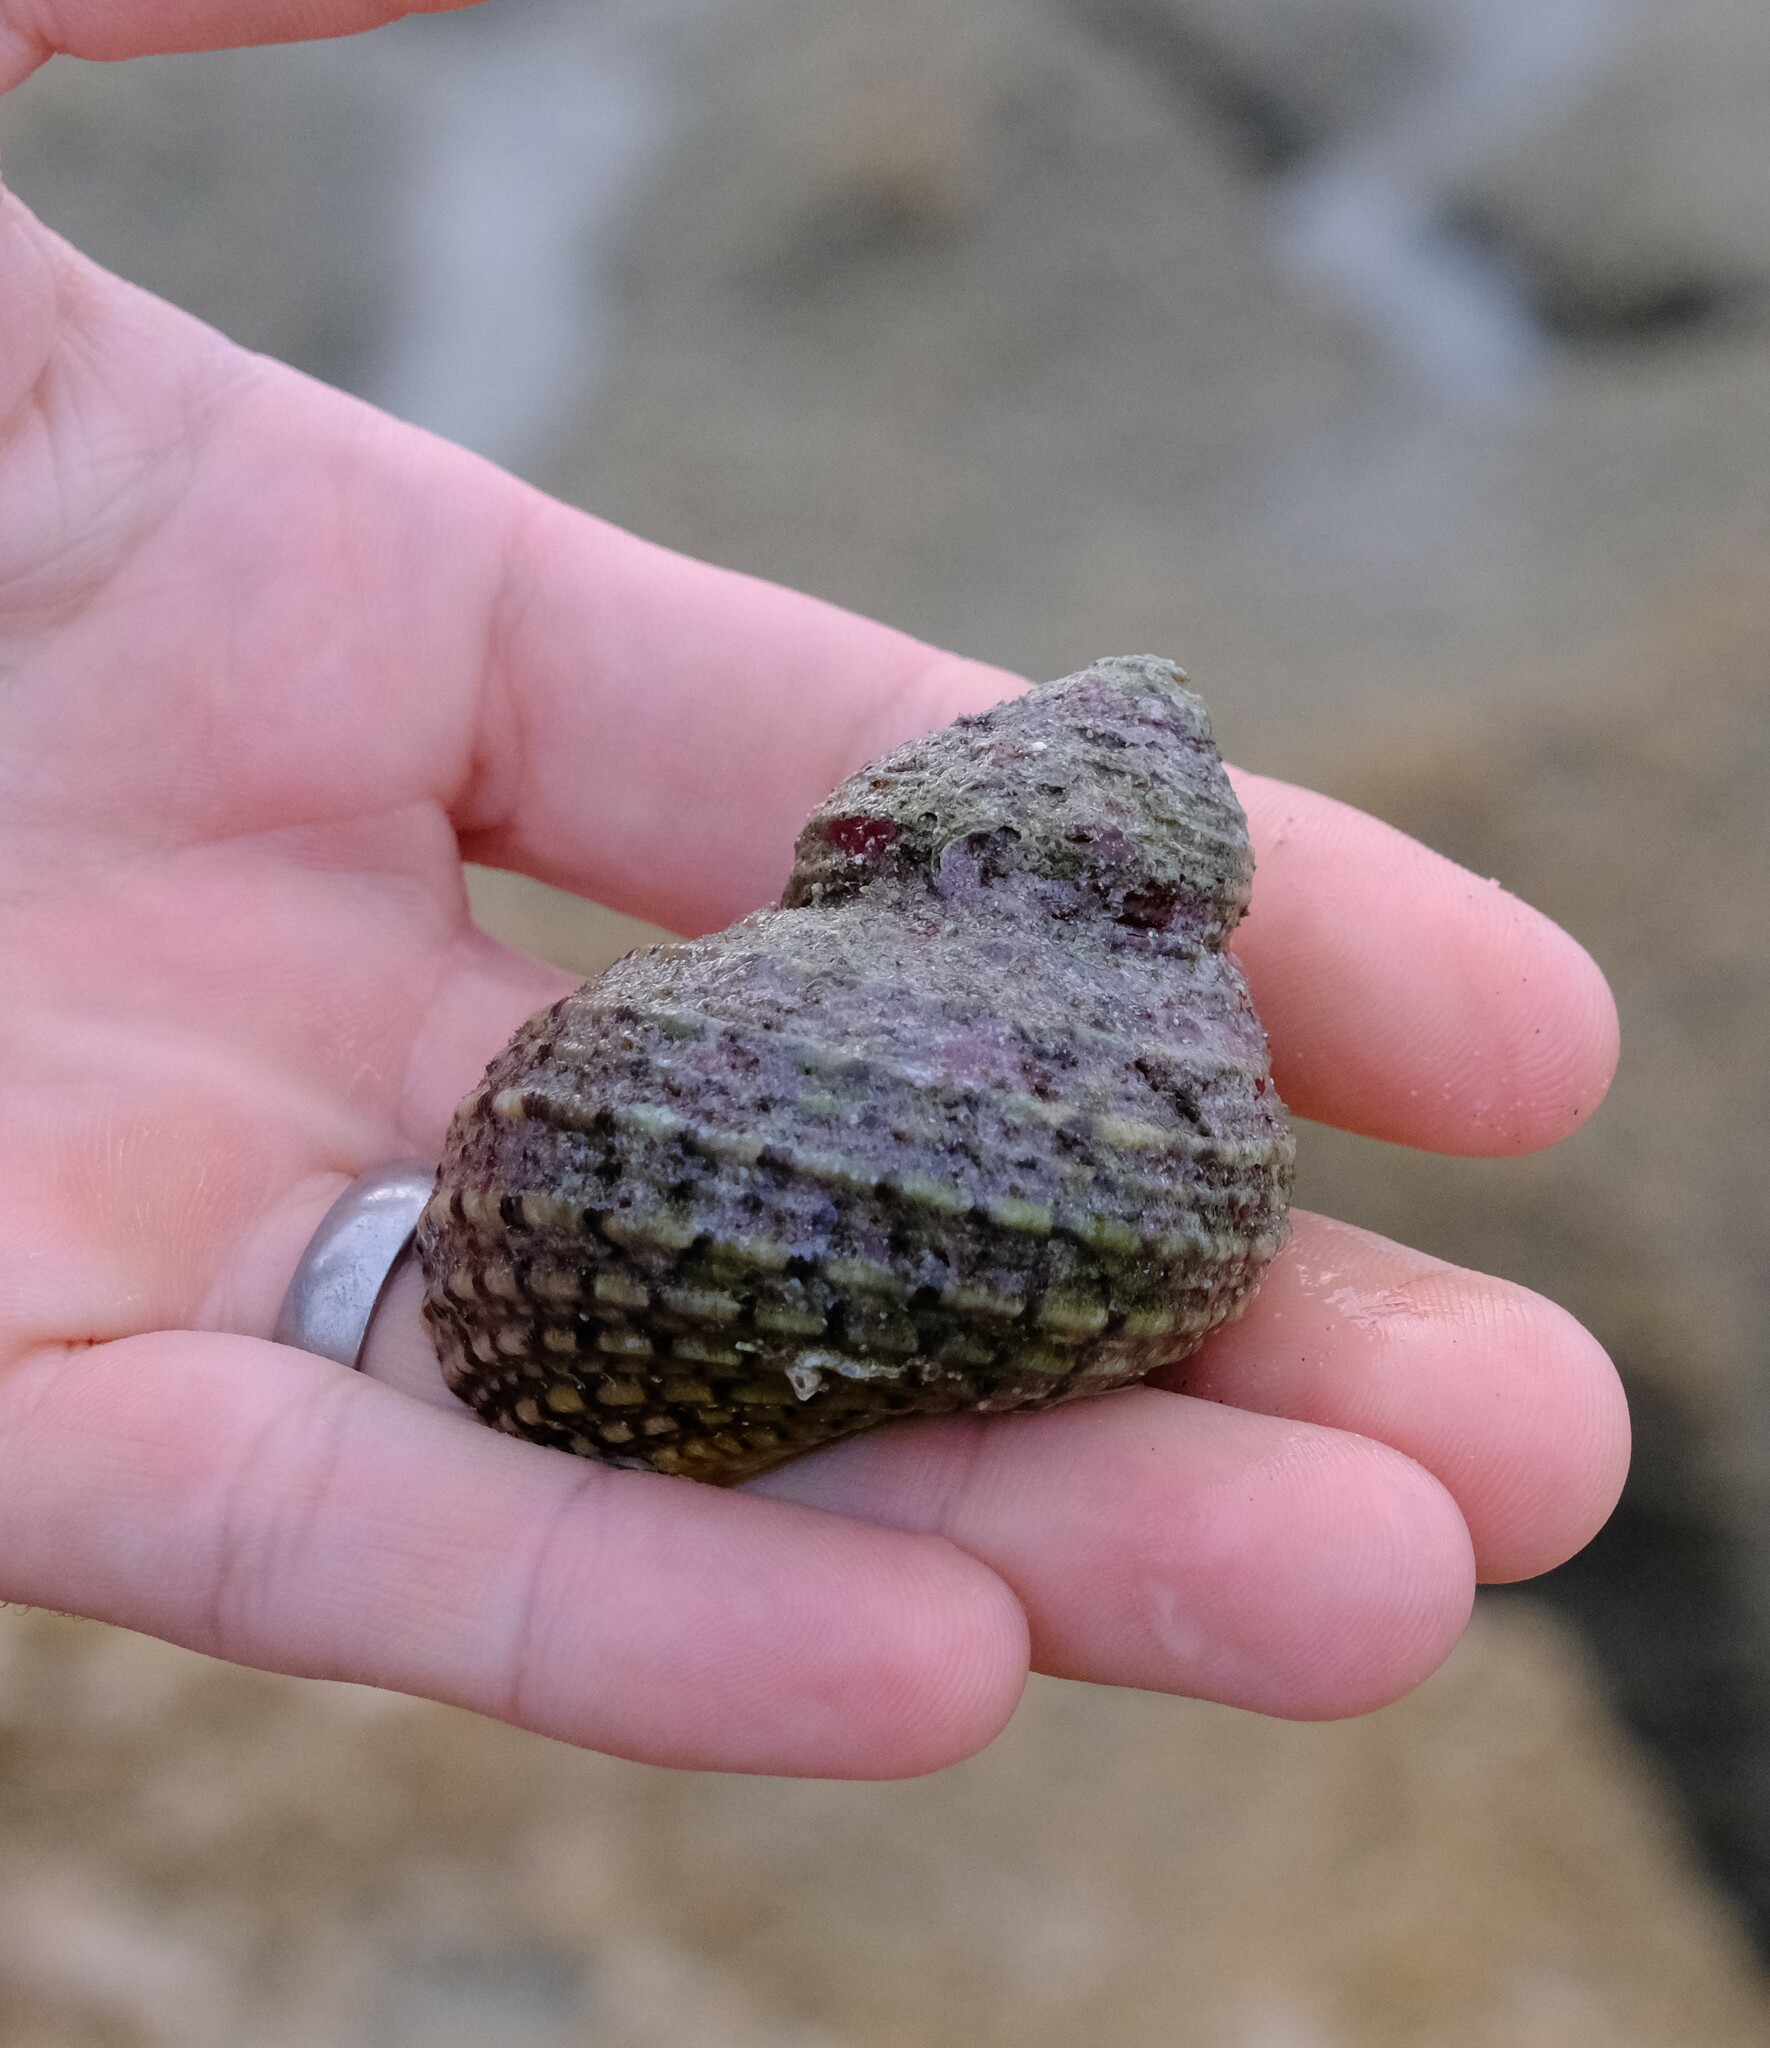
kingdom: Animalia
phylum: Mollusca
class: Gastropoda
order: Trochida
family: Turbinidae
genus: Turbo
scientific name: Turbo kenwilliamsi
